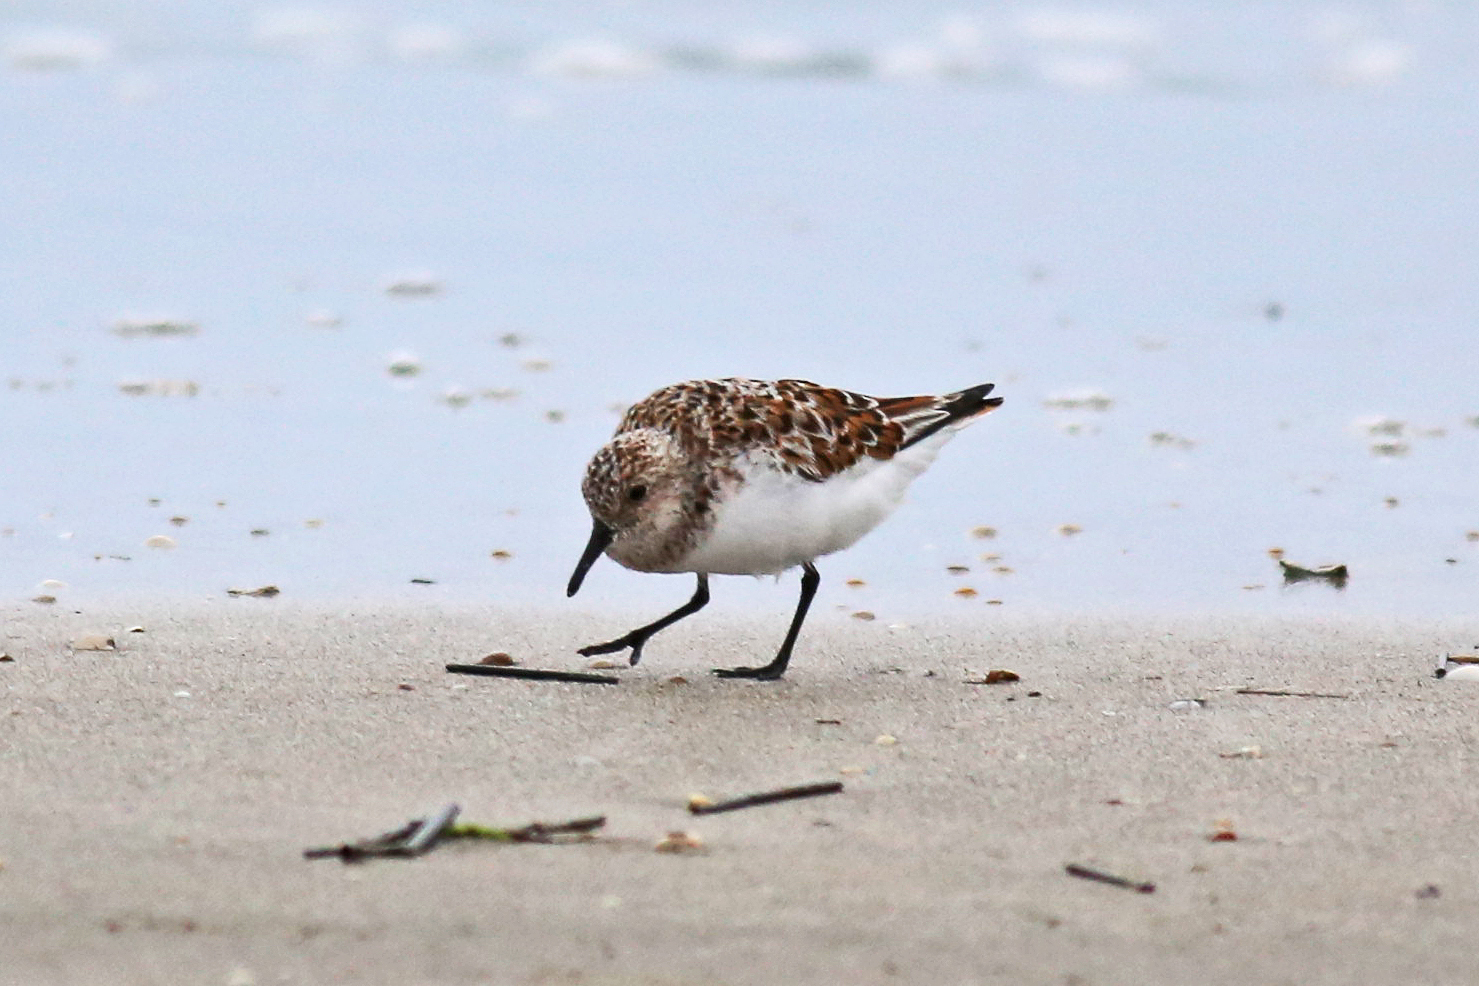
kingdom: Animalia
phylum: Chordata
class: Aves
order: Charadriiformes
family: Scolopacidae
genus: Calidris
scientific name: Calidris alba
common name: Sanderling
